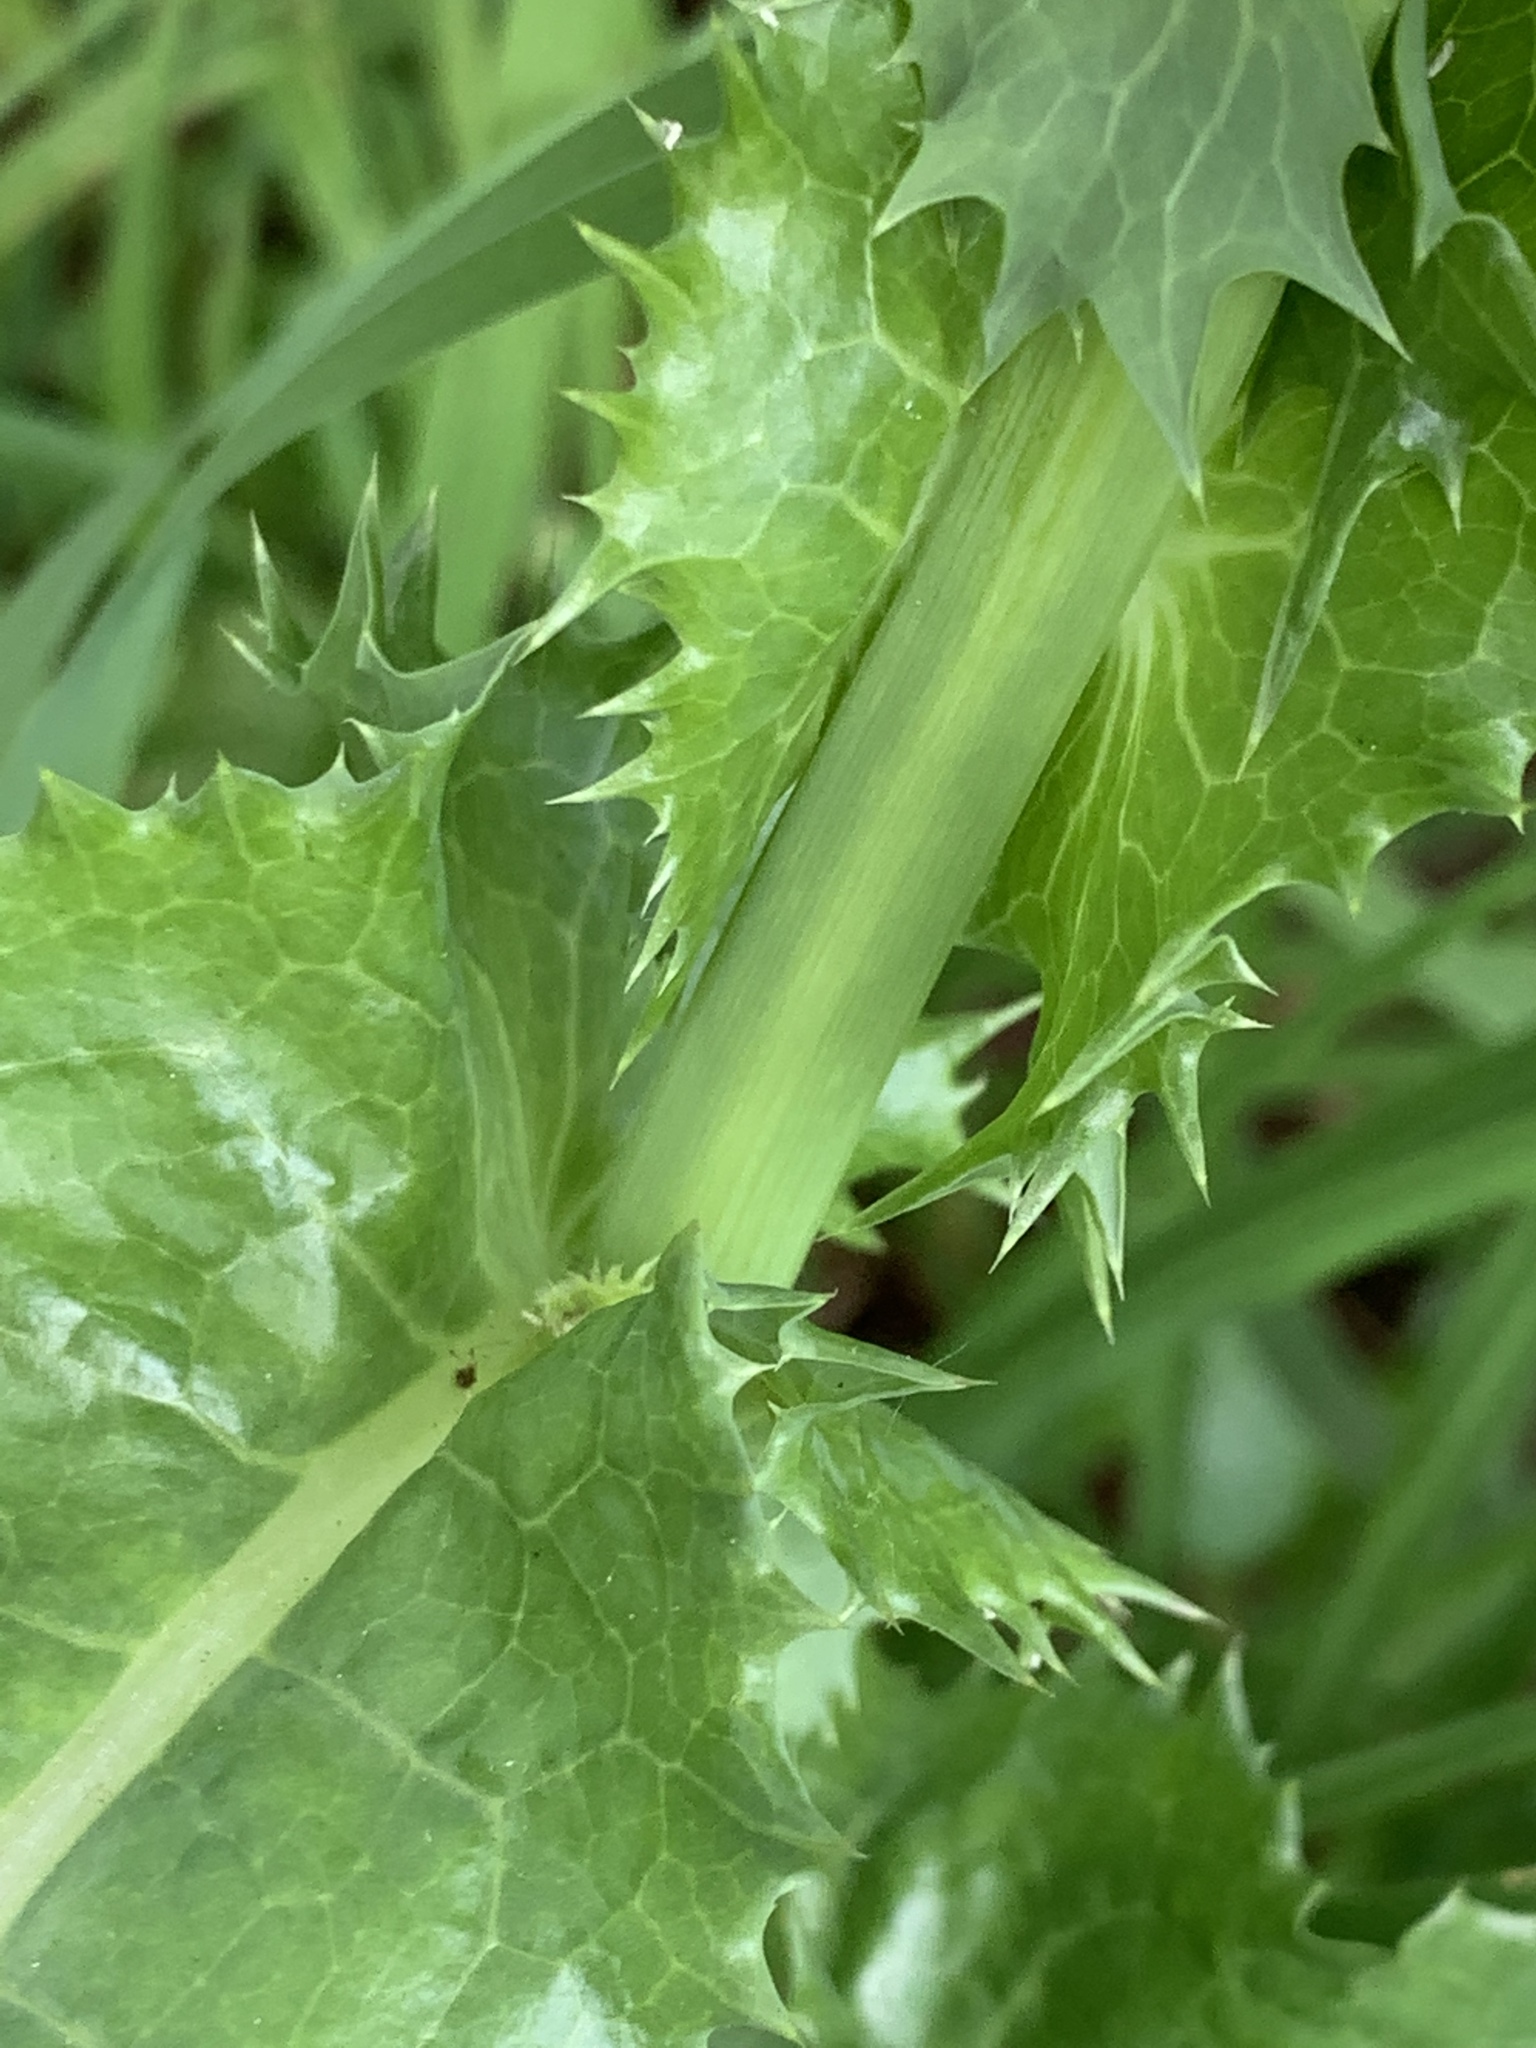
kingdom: Plantae
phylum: Tracheophyta
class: Magnoliopsida
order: Asterales
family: Asteraceae
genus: Sonchus
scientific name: Sonchus asper
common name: Prickly sow-thistle
